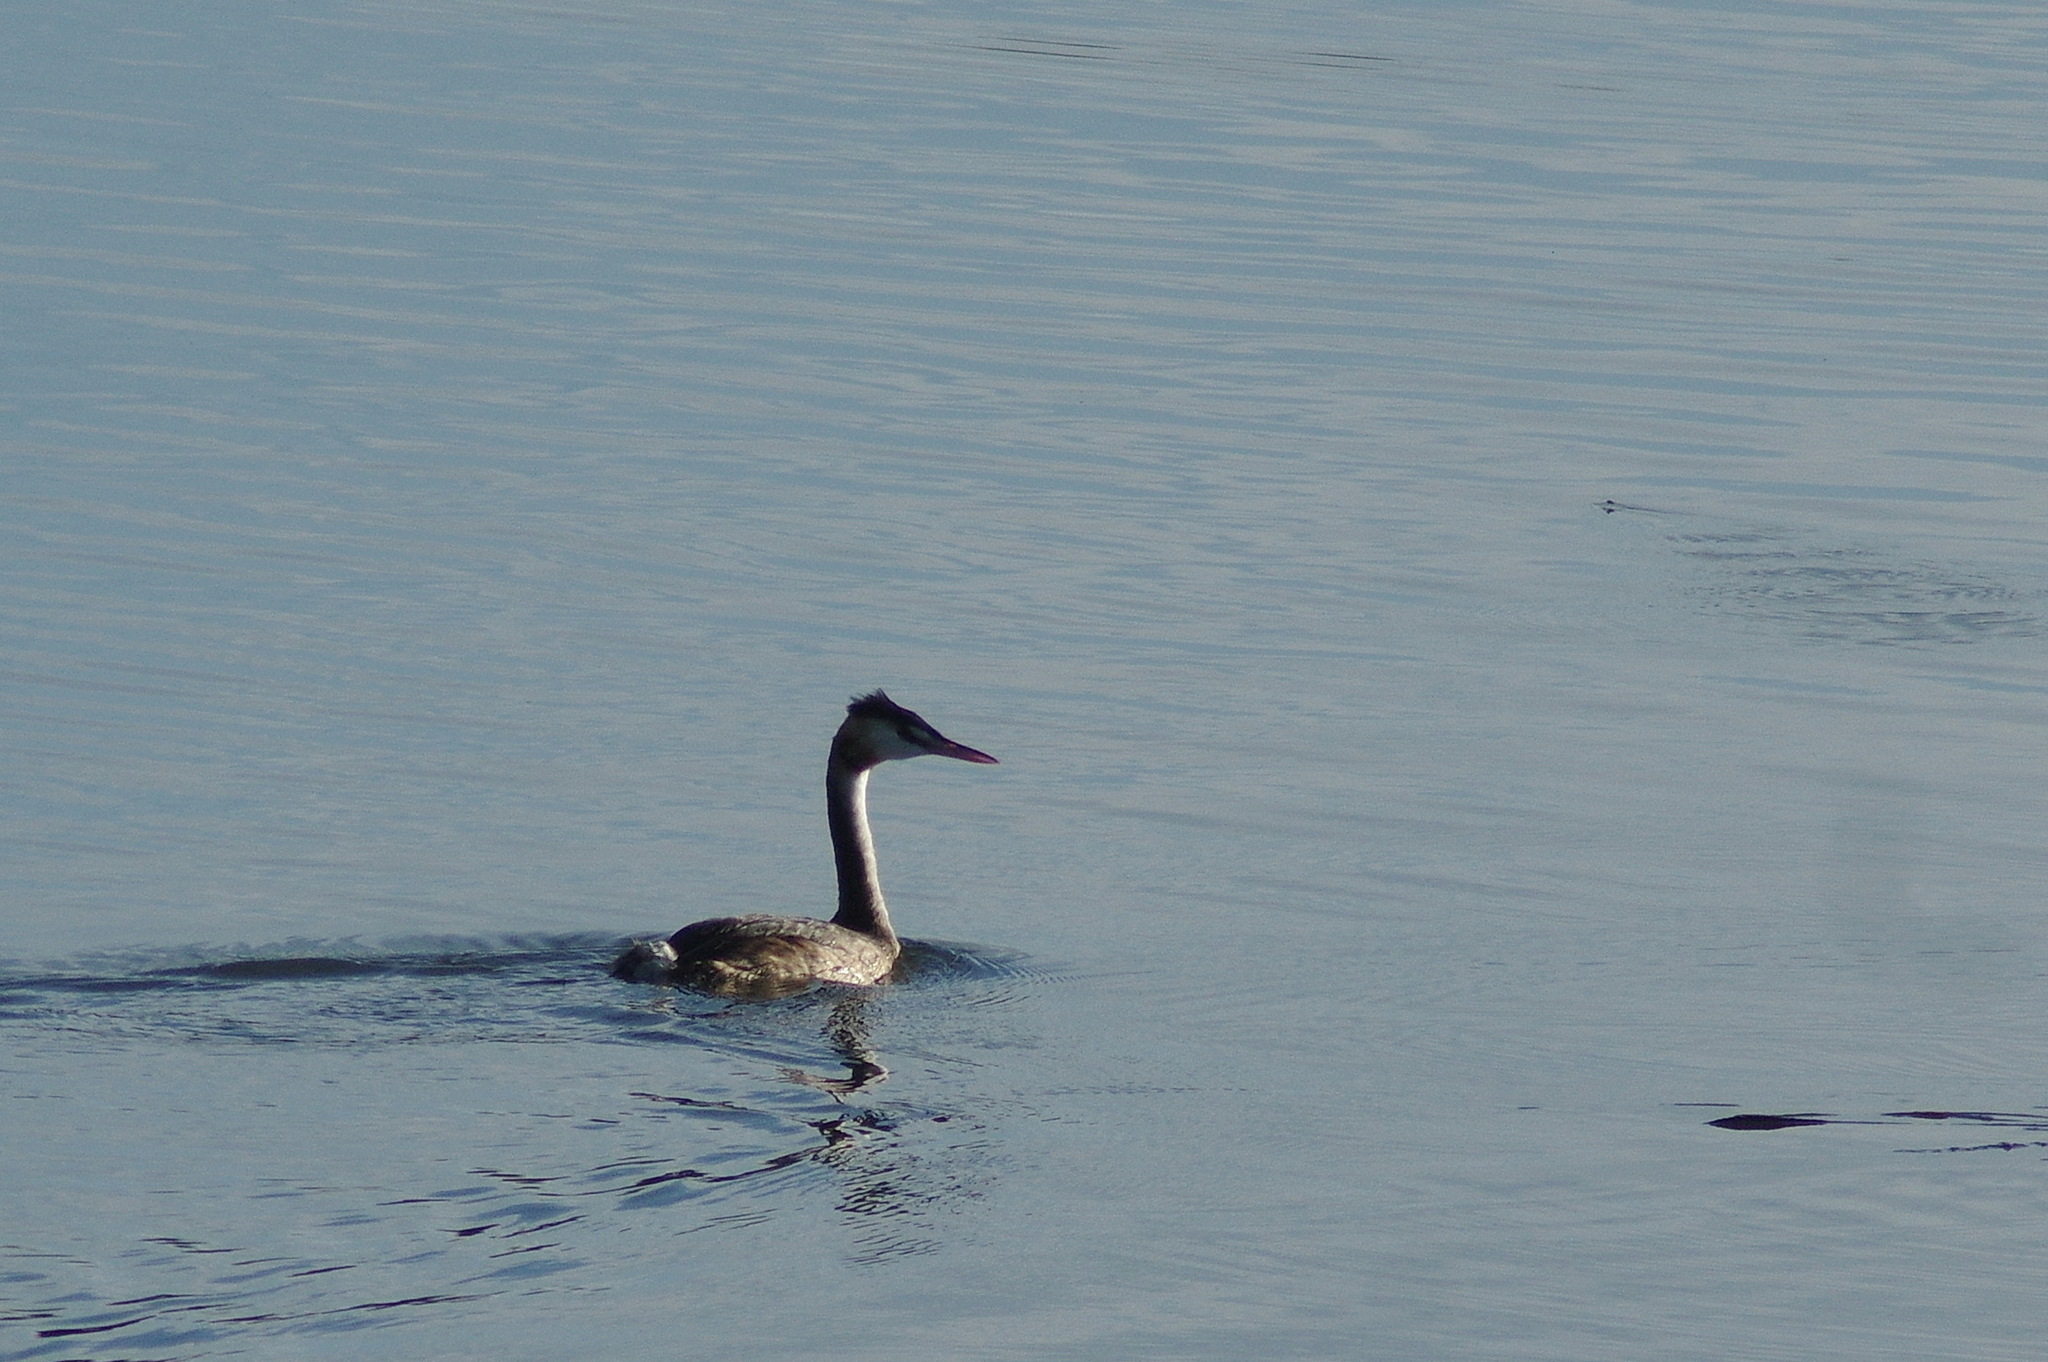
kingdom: Animalia
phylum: Chordata
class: Aves
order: Podicipediformes
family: Podicipedidae
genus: Podiceps
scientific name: Podiceps cristatus
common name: Great crested grebe
